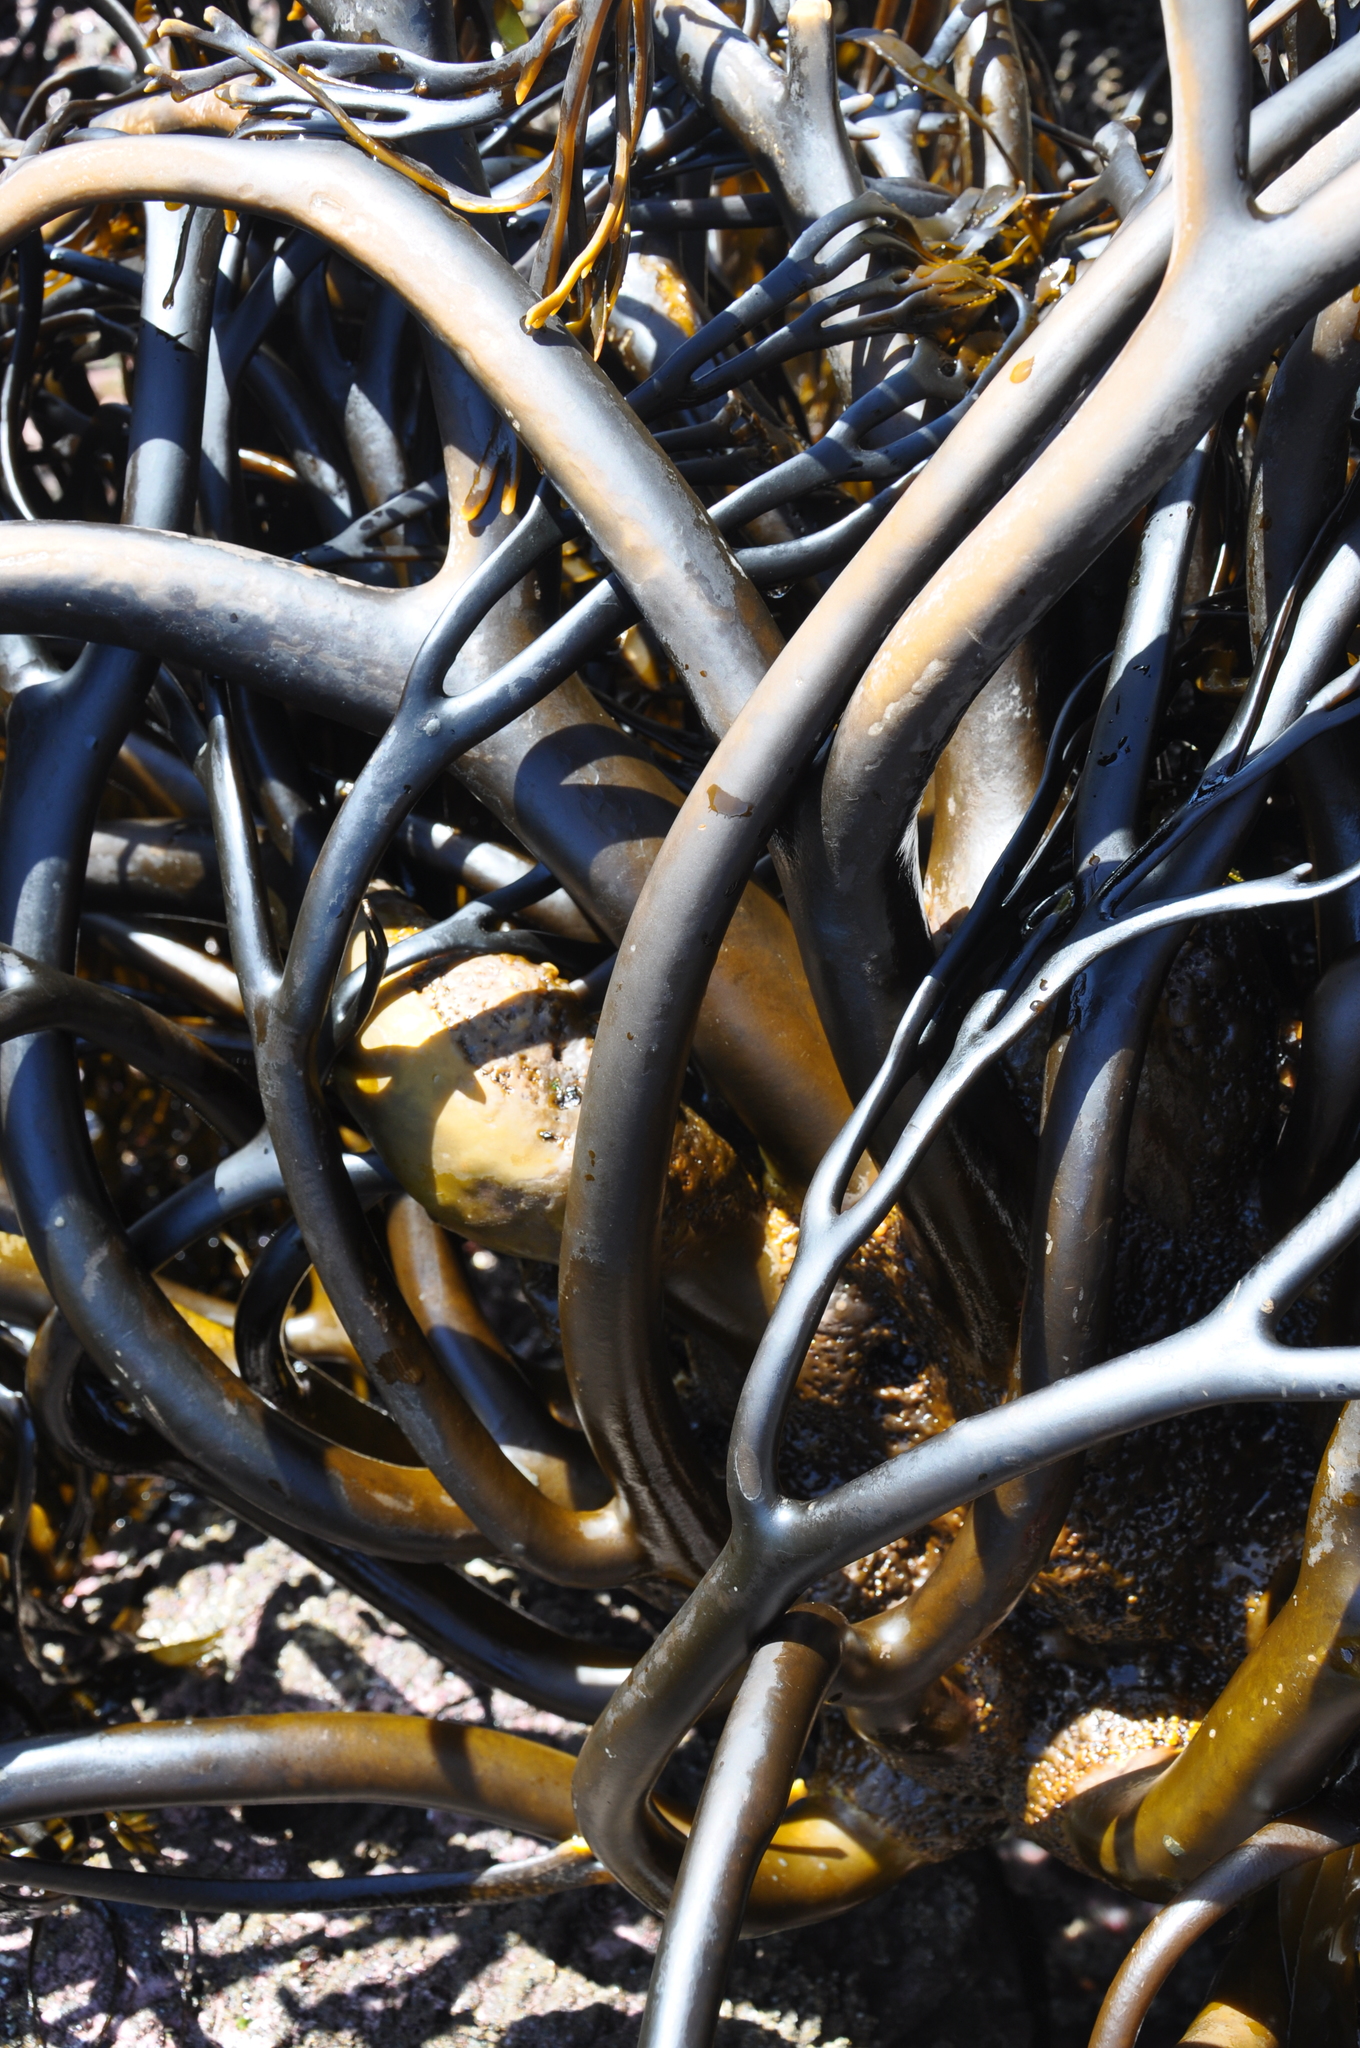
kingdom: Chromista
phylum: Ochrophyta
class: Phaeophyceae
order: Laminariales
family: Lessoniaceae
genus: Lessonia
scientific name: Lessonia spicata
